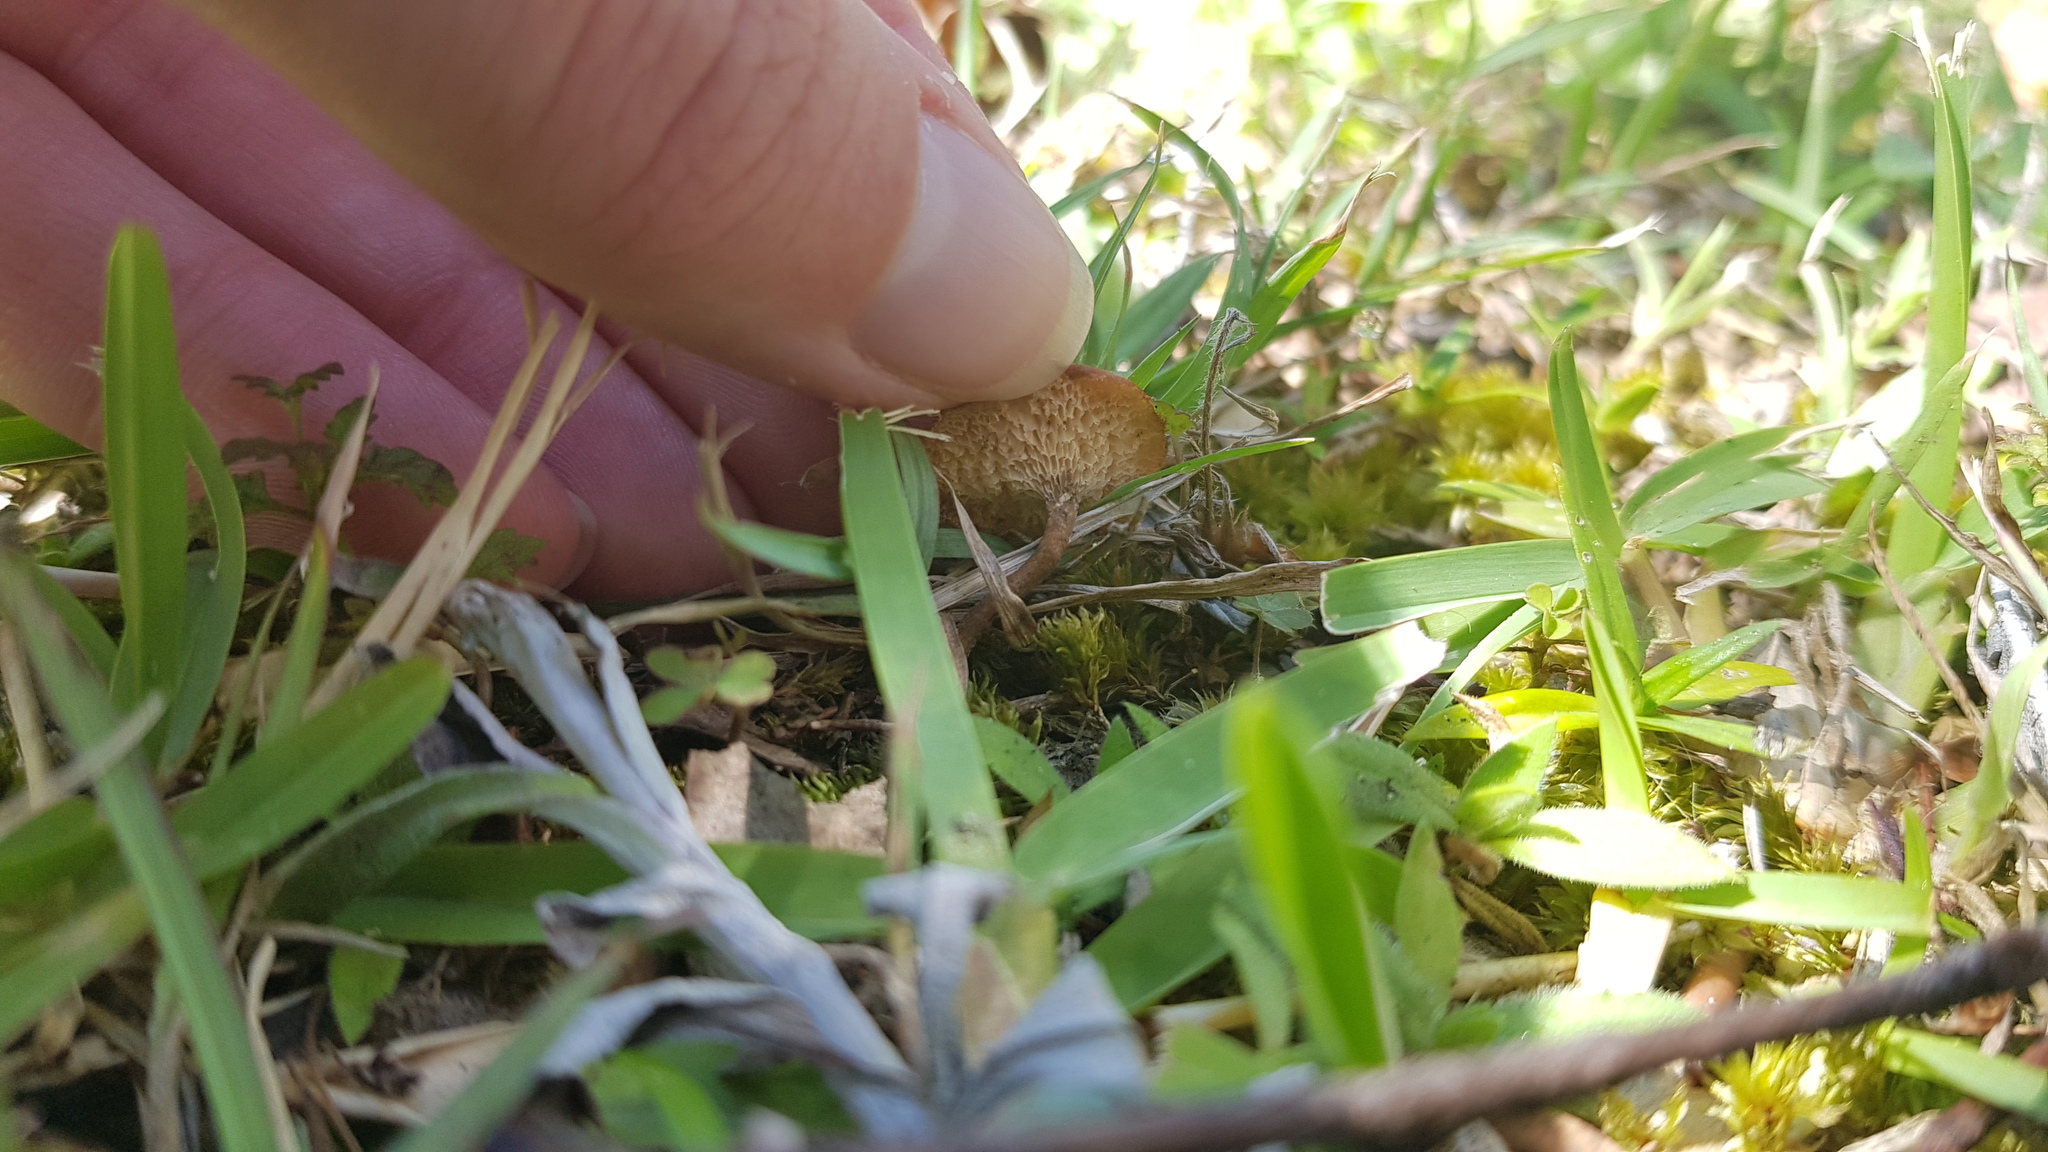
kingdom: Fungi
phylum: Basidiomycota
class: Agaricomycetes
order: Polyporales
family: Polyporaceae
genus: Lentinus
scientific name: Lentinus arcularius
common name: Spring polypore
